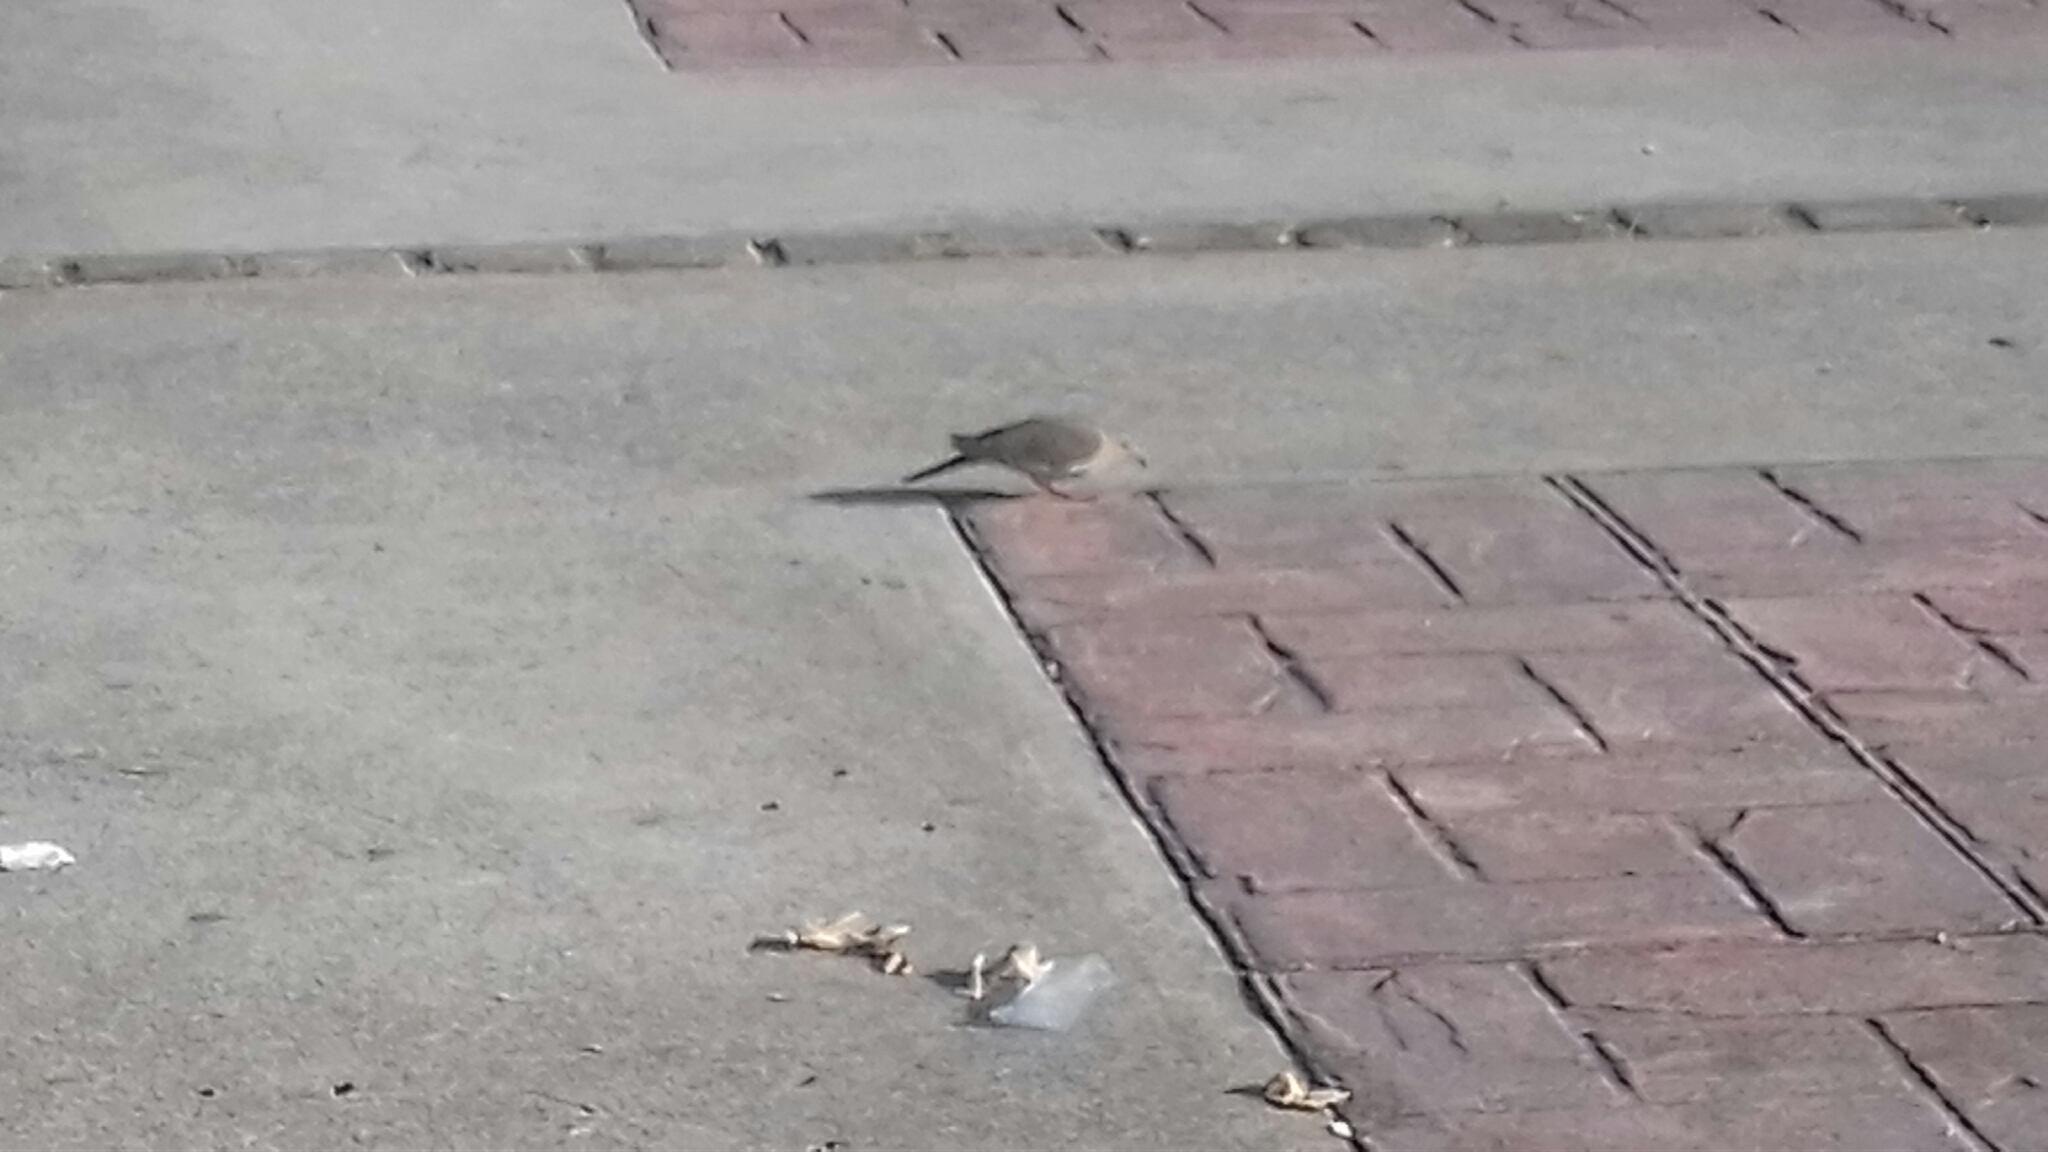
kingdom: Animalia
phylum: Chordata
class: Aves
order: Columbiformes
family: Columbidae
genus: Zenaida
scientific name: Zenaida asiatica
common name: White-winged dove
